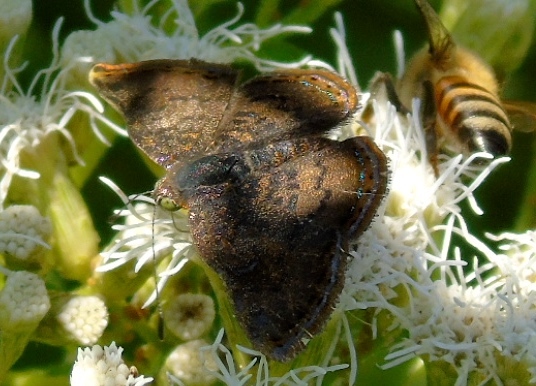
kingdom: Animalia
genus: Caria
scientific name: Caria ino
